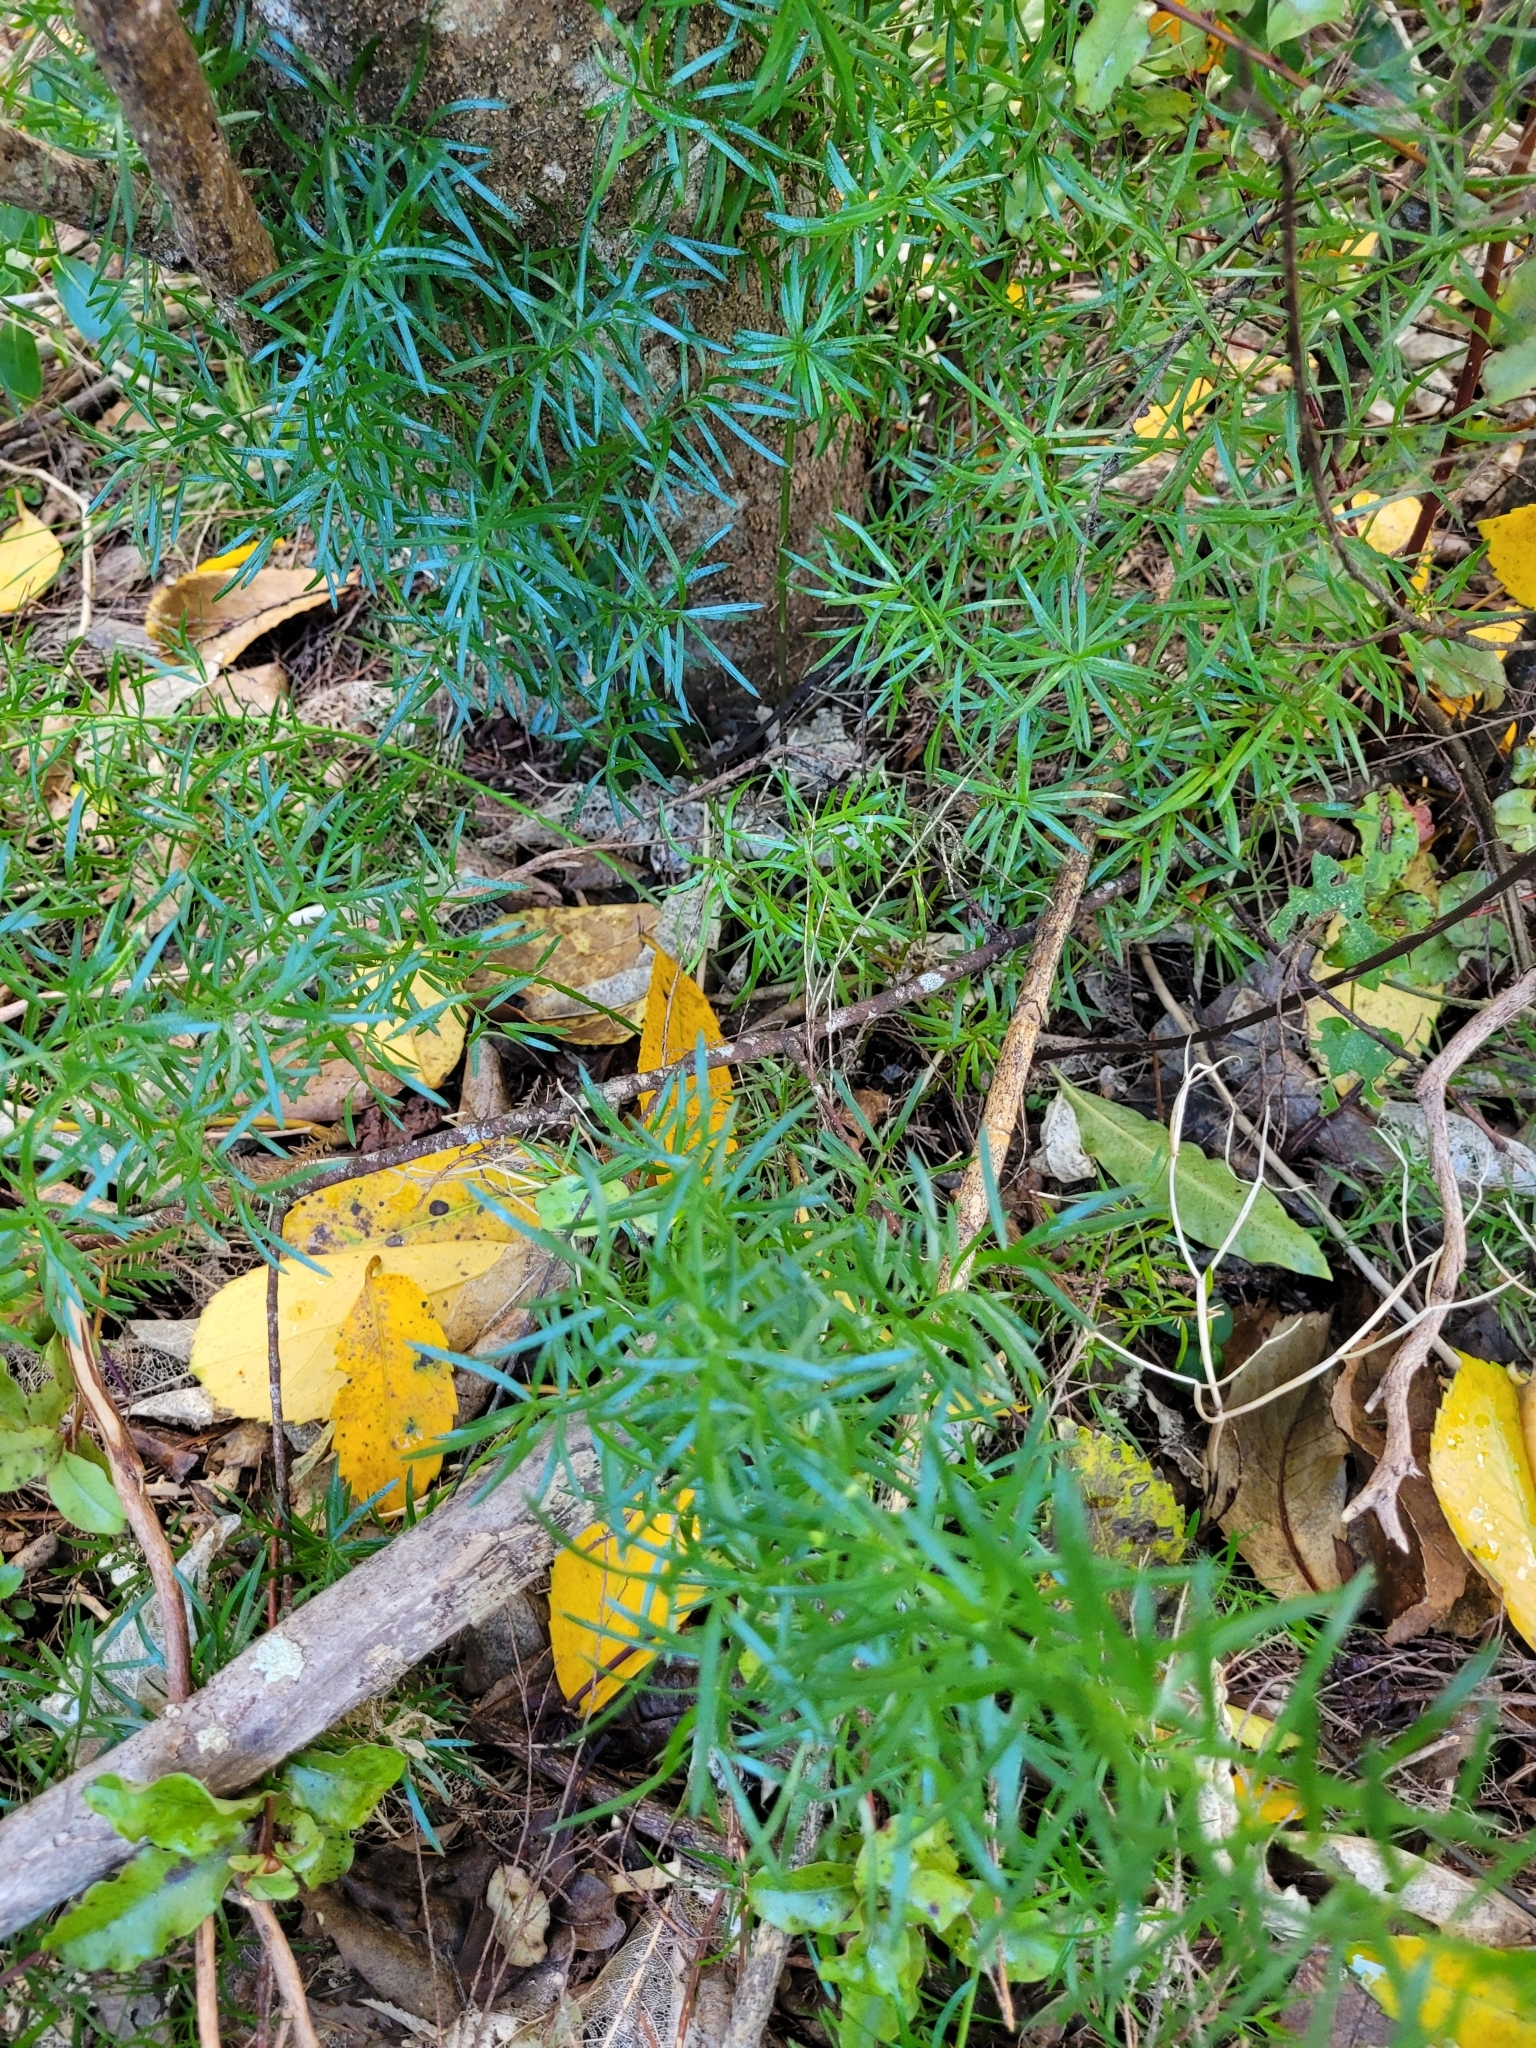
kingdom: Plantae
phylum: Tracheophyta
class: Liliopsida
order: Asparagales
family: Asparagaceae
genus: Asparagus
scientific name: Asparagus aethiopicus
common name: Sprenger's asparagus fern
